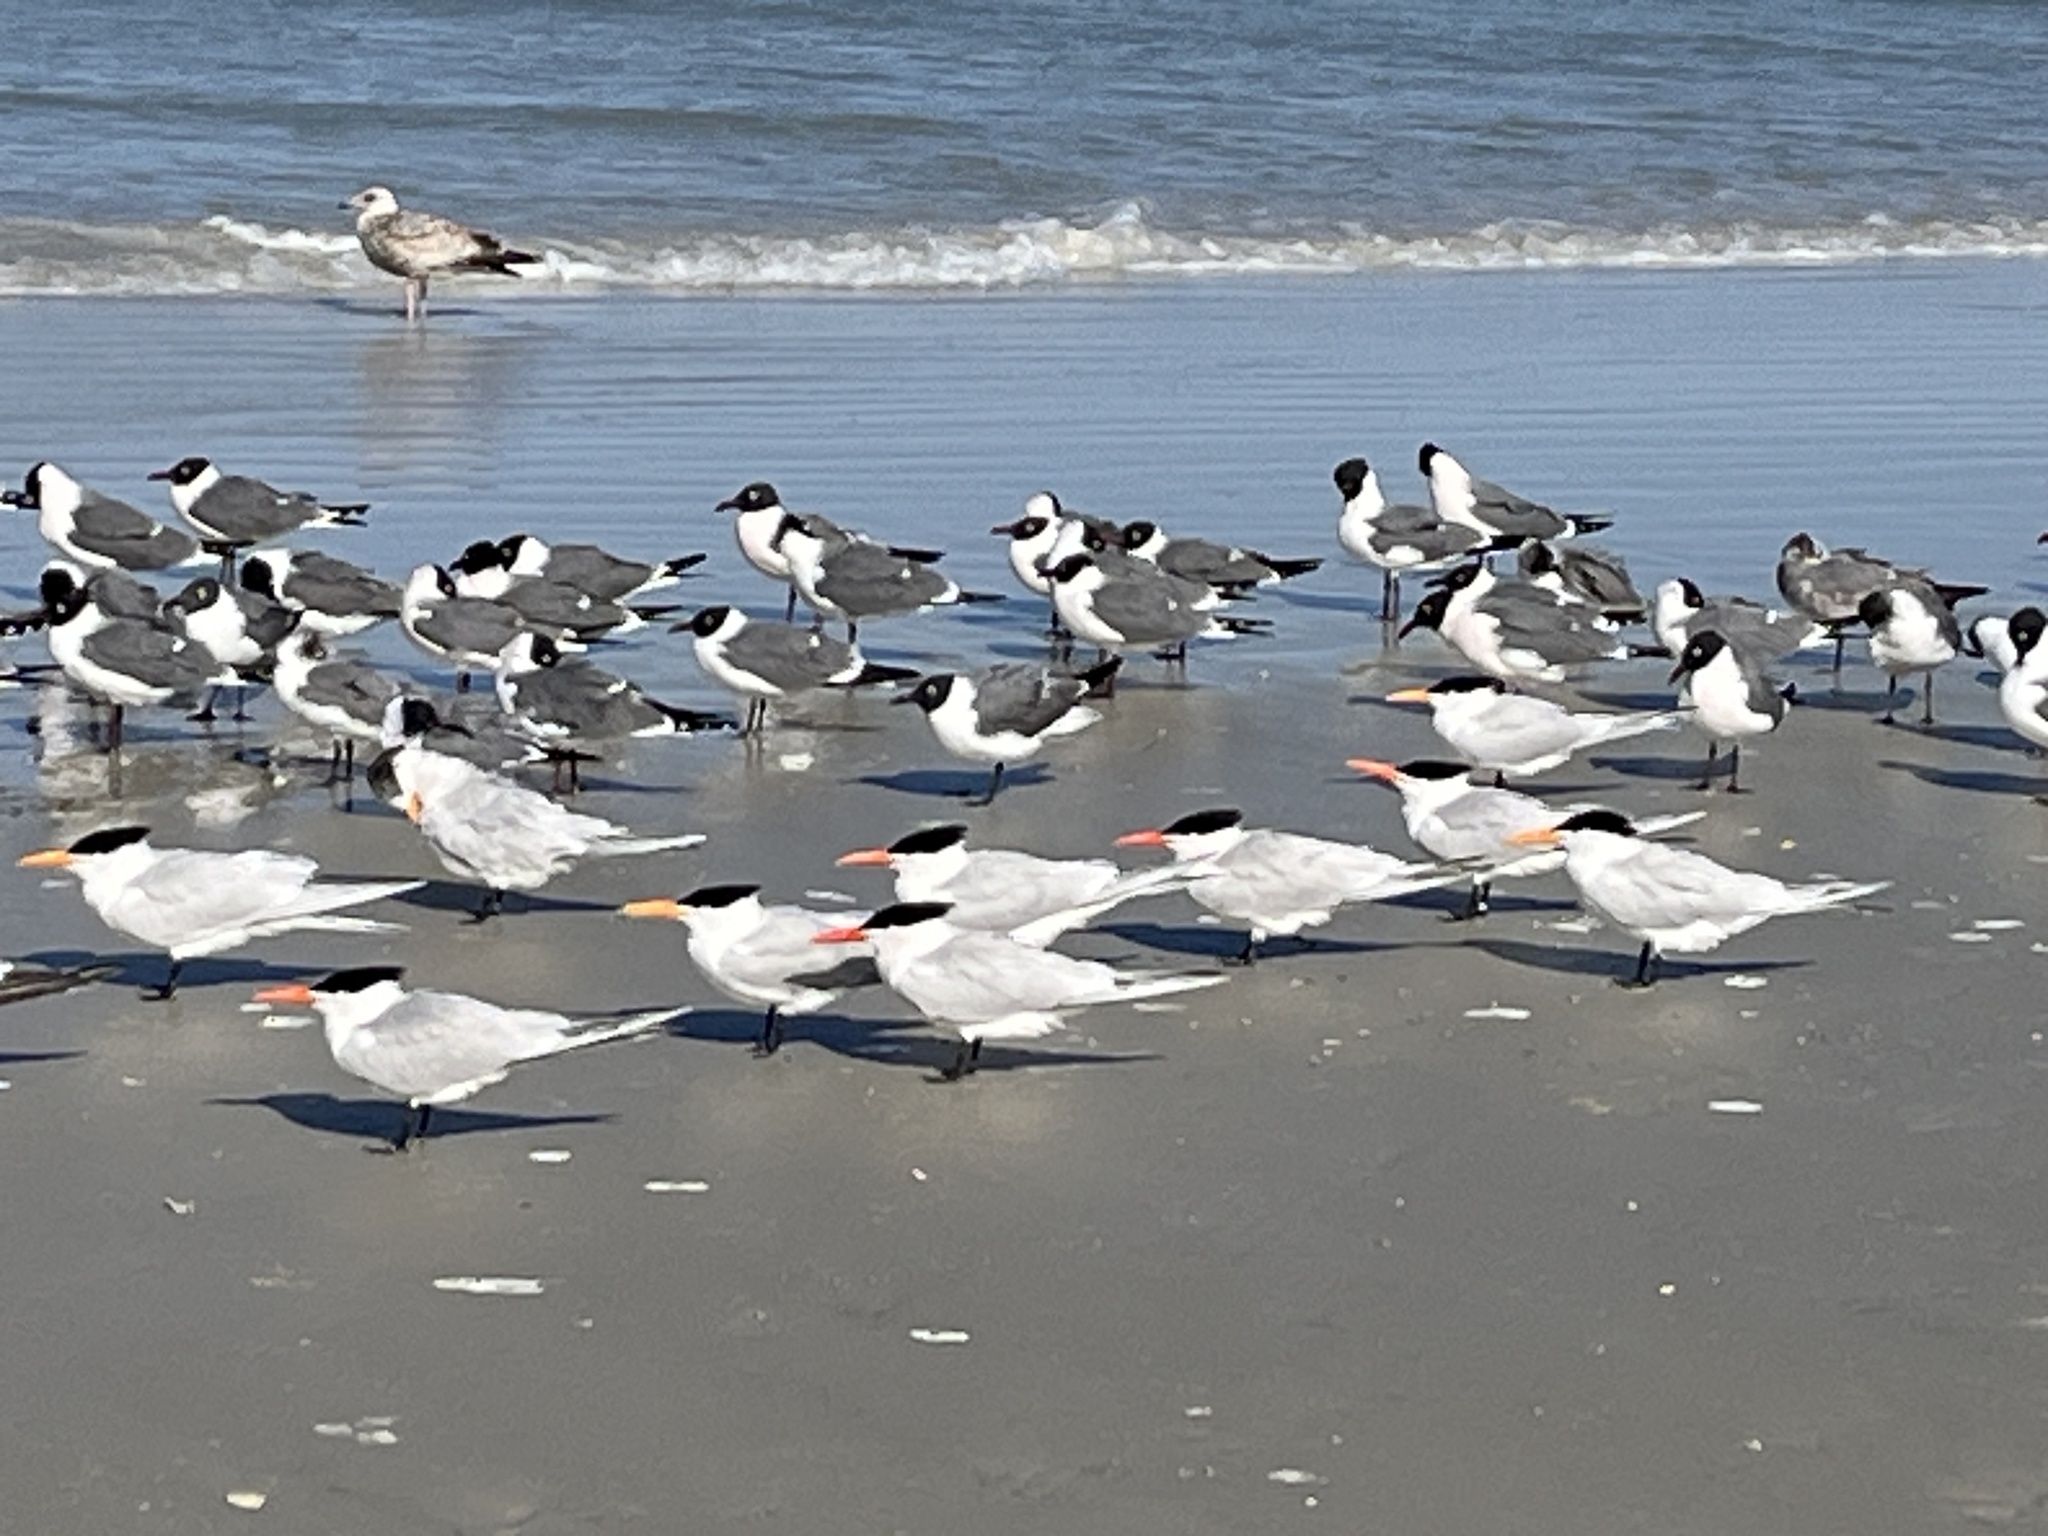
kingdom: Animalia
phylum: Chordata
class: Aves
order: Charadriiformes
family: Laridae
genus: Thalasseus
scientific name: Thalasseus maximus
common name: Royal tern
